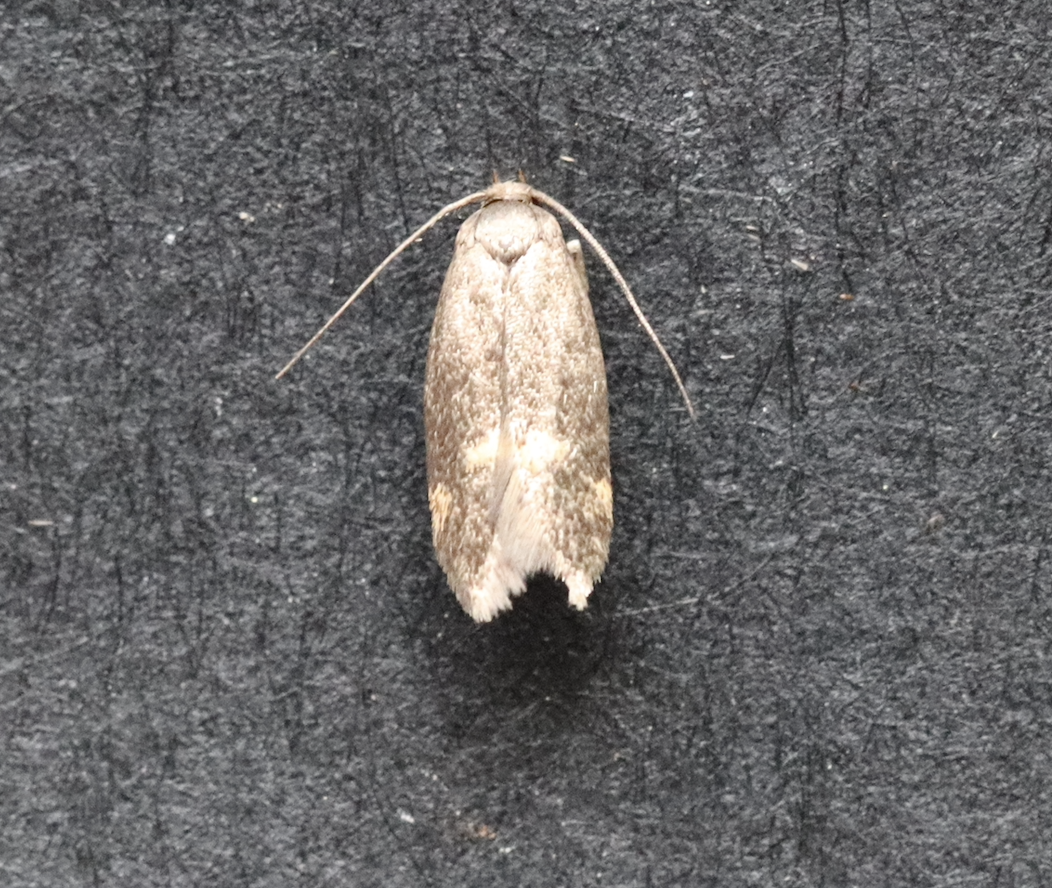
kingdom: Animalia
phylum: Arthropoda
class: Insecta
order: Lepidoptera
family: Oecophoridae
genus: Borkhausenia
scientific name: Borkhausenia minutella
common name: Thatch tubic
